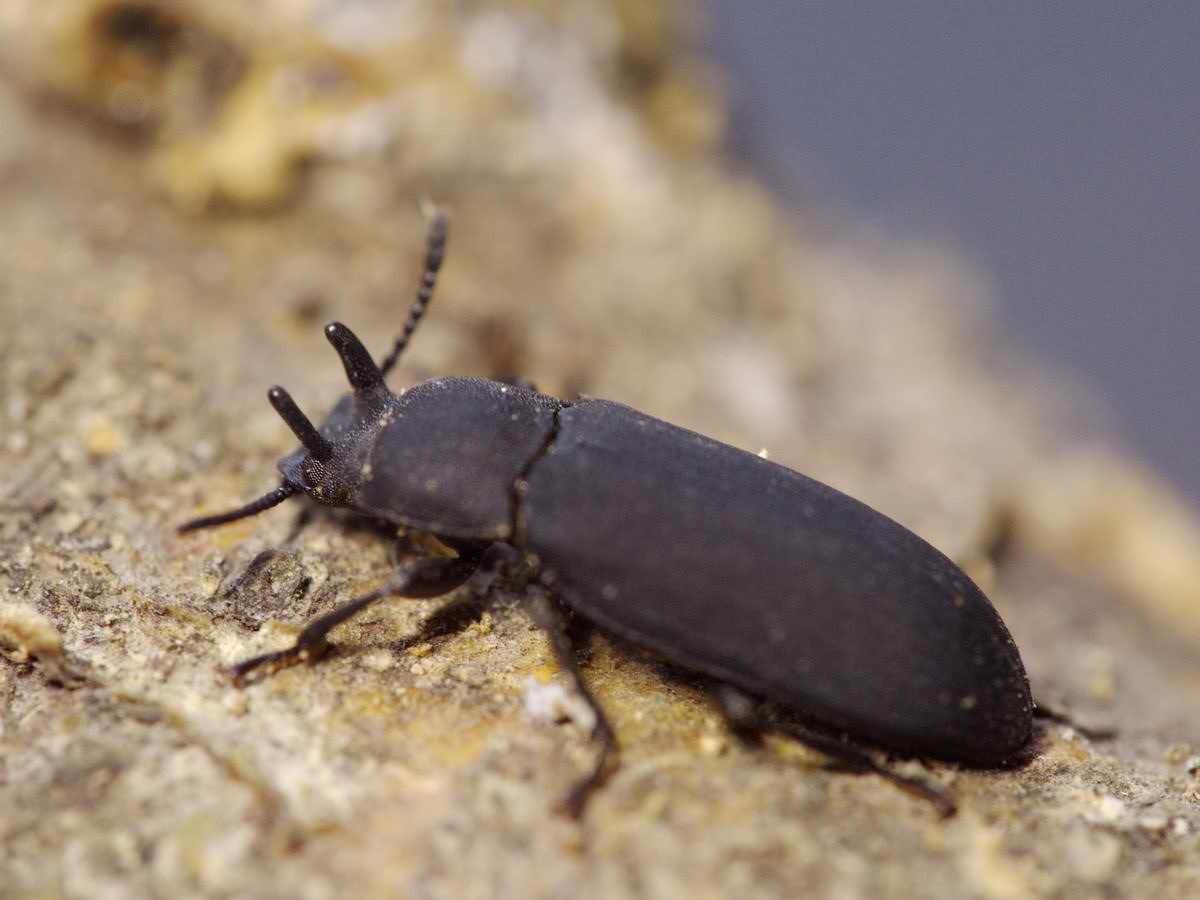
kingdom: Animalia
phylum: Arthropoda
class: Insecta
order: Coleoptera
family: Tenebrionidae
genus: Cryphaeus
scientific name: Cryphaeus cornutus
